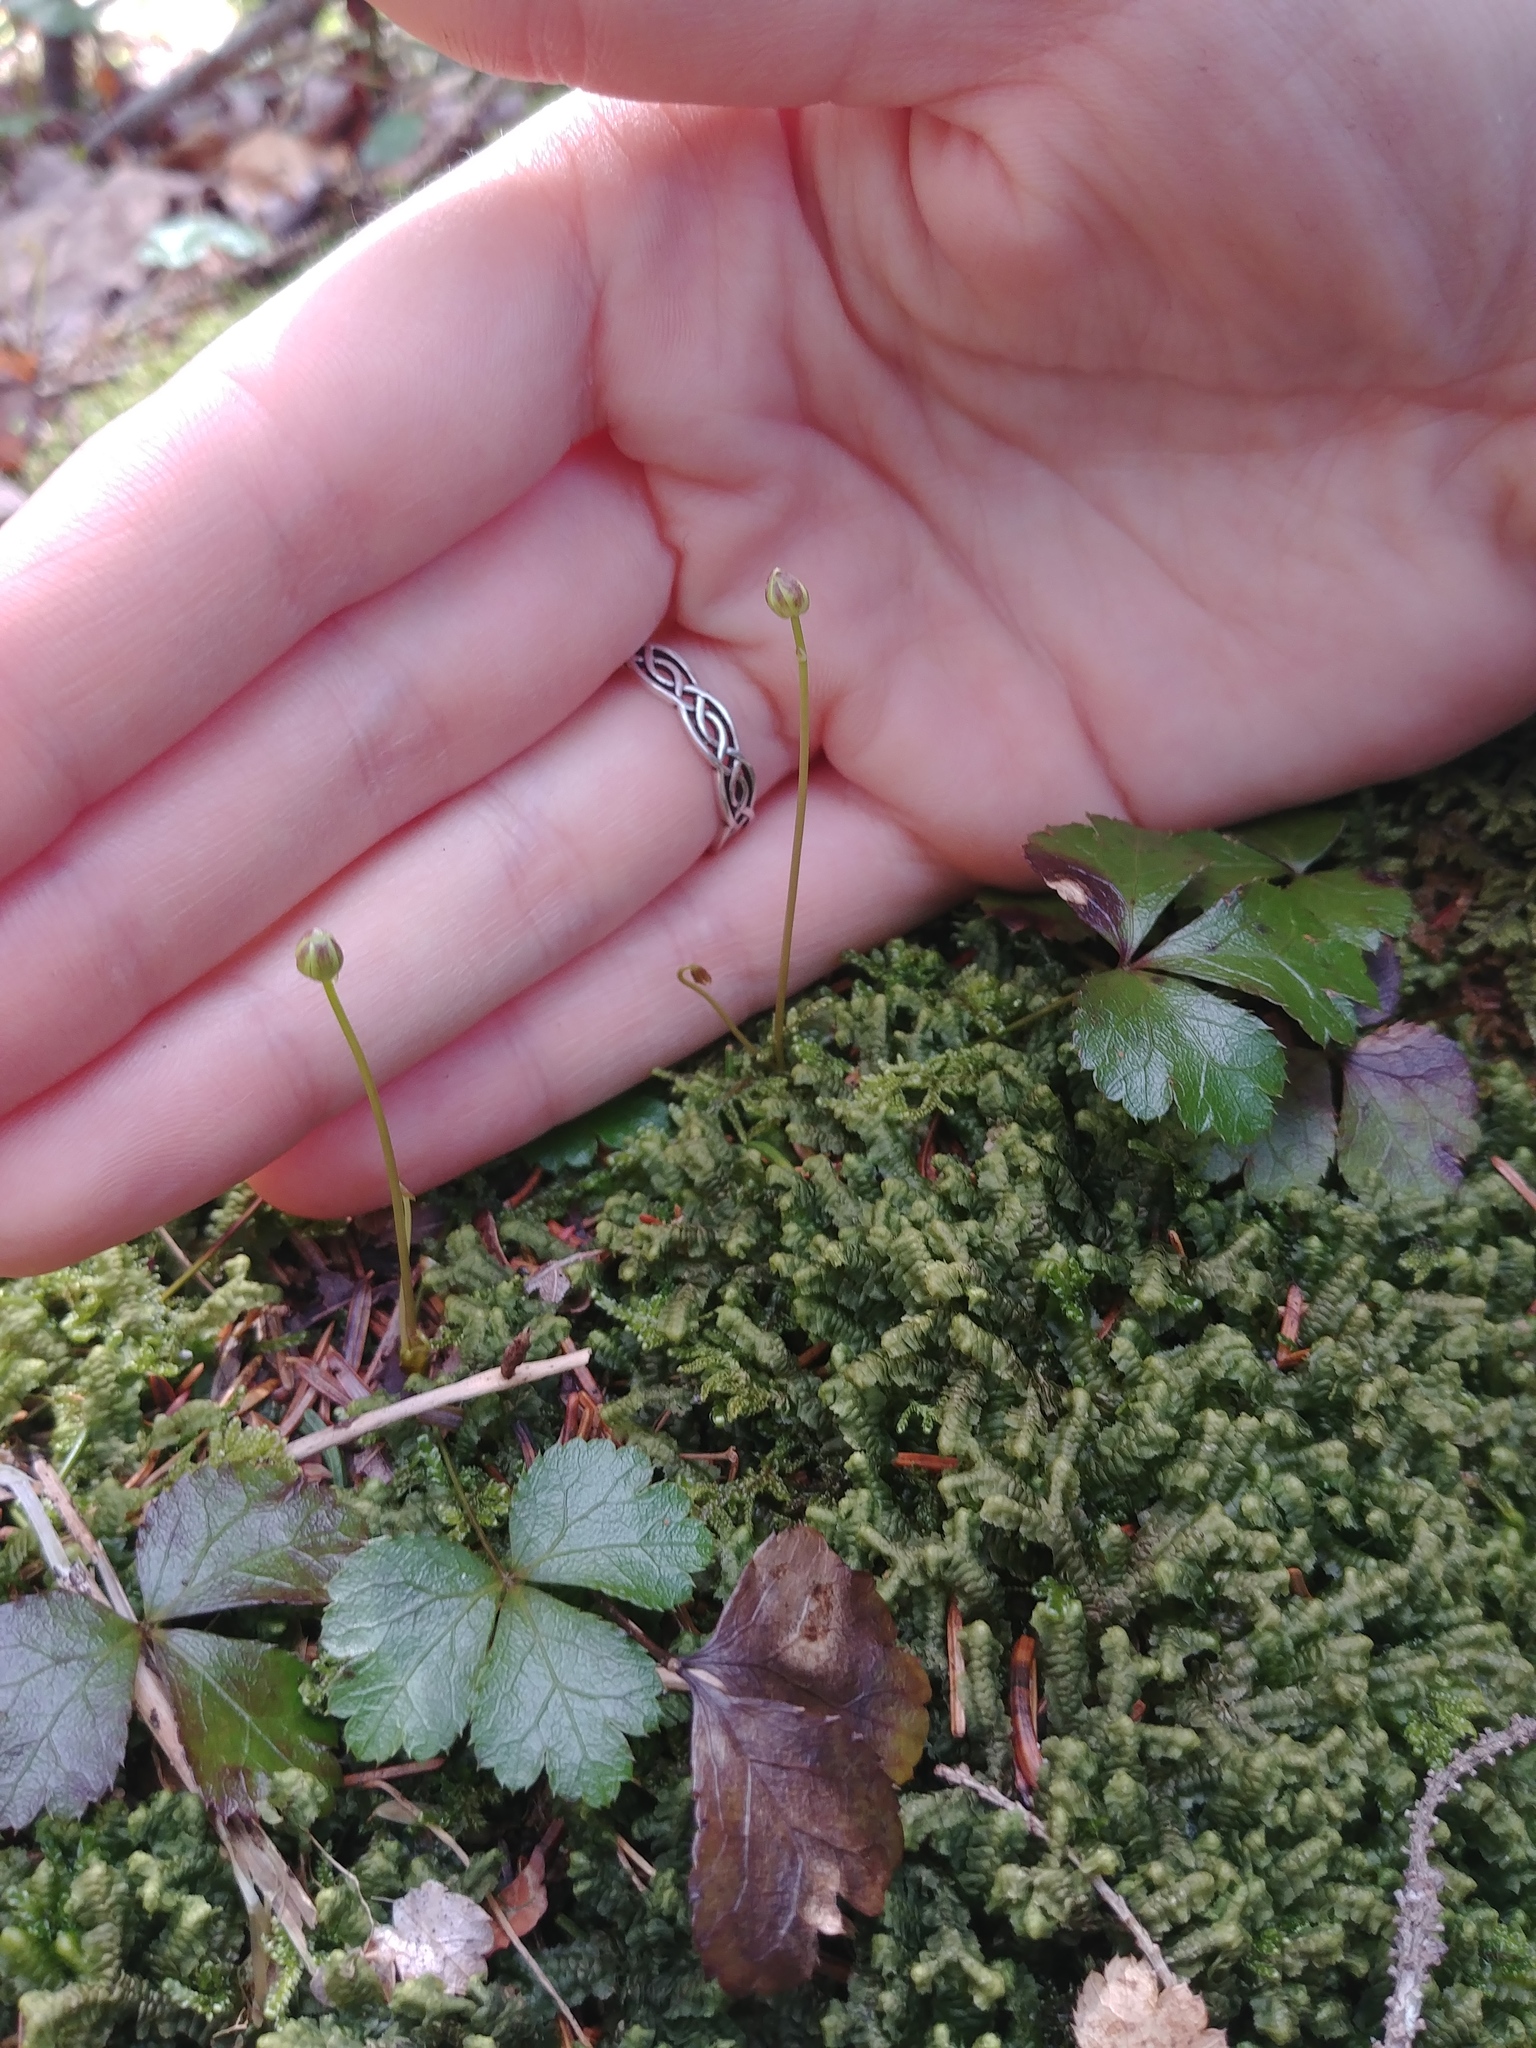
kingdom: Plantae
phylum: Tracheophyta
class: Magnoliopsida
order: Ranunculales
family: Ranunculaceae
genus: Coptis
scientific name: Coptis trifolia
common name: Canker-root
